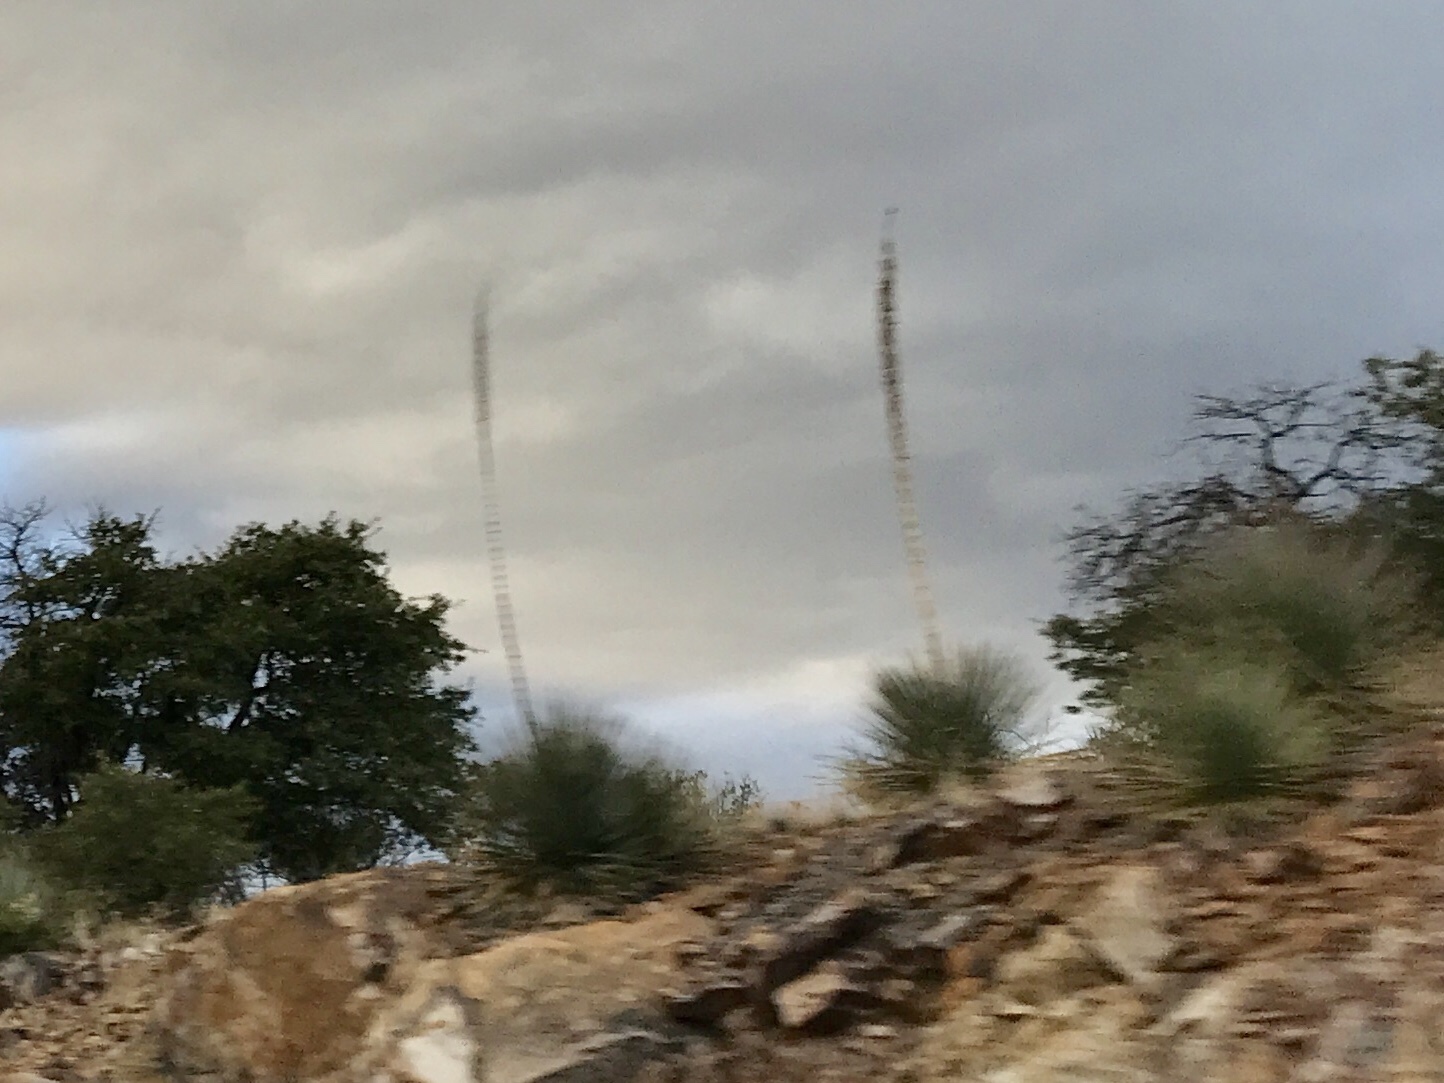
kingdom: Plantae
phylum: Tracheophyta
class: Liliopsida
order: Asparagales
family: Asparagaceae
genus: Dasylirion
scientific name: Dasylirion wheeleri
